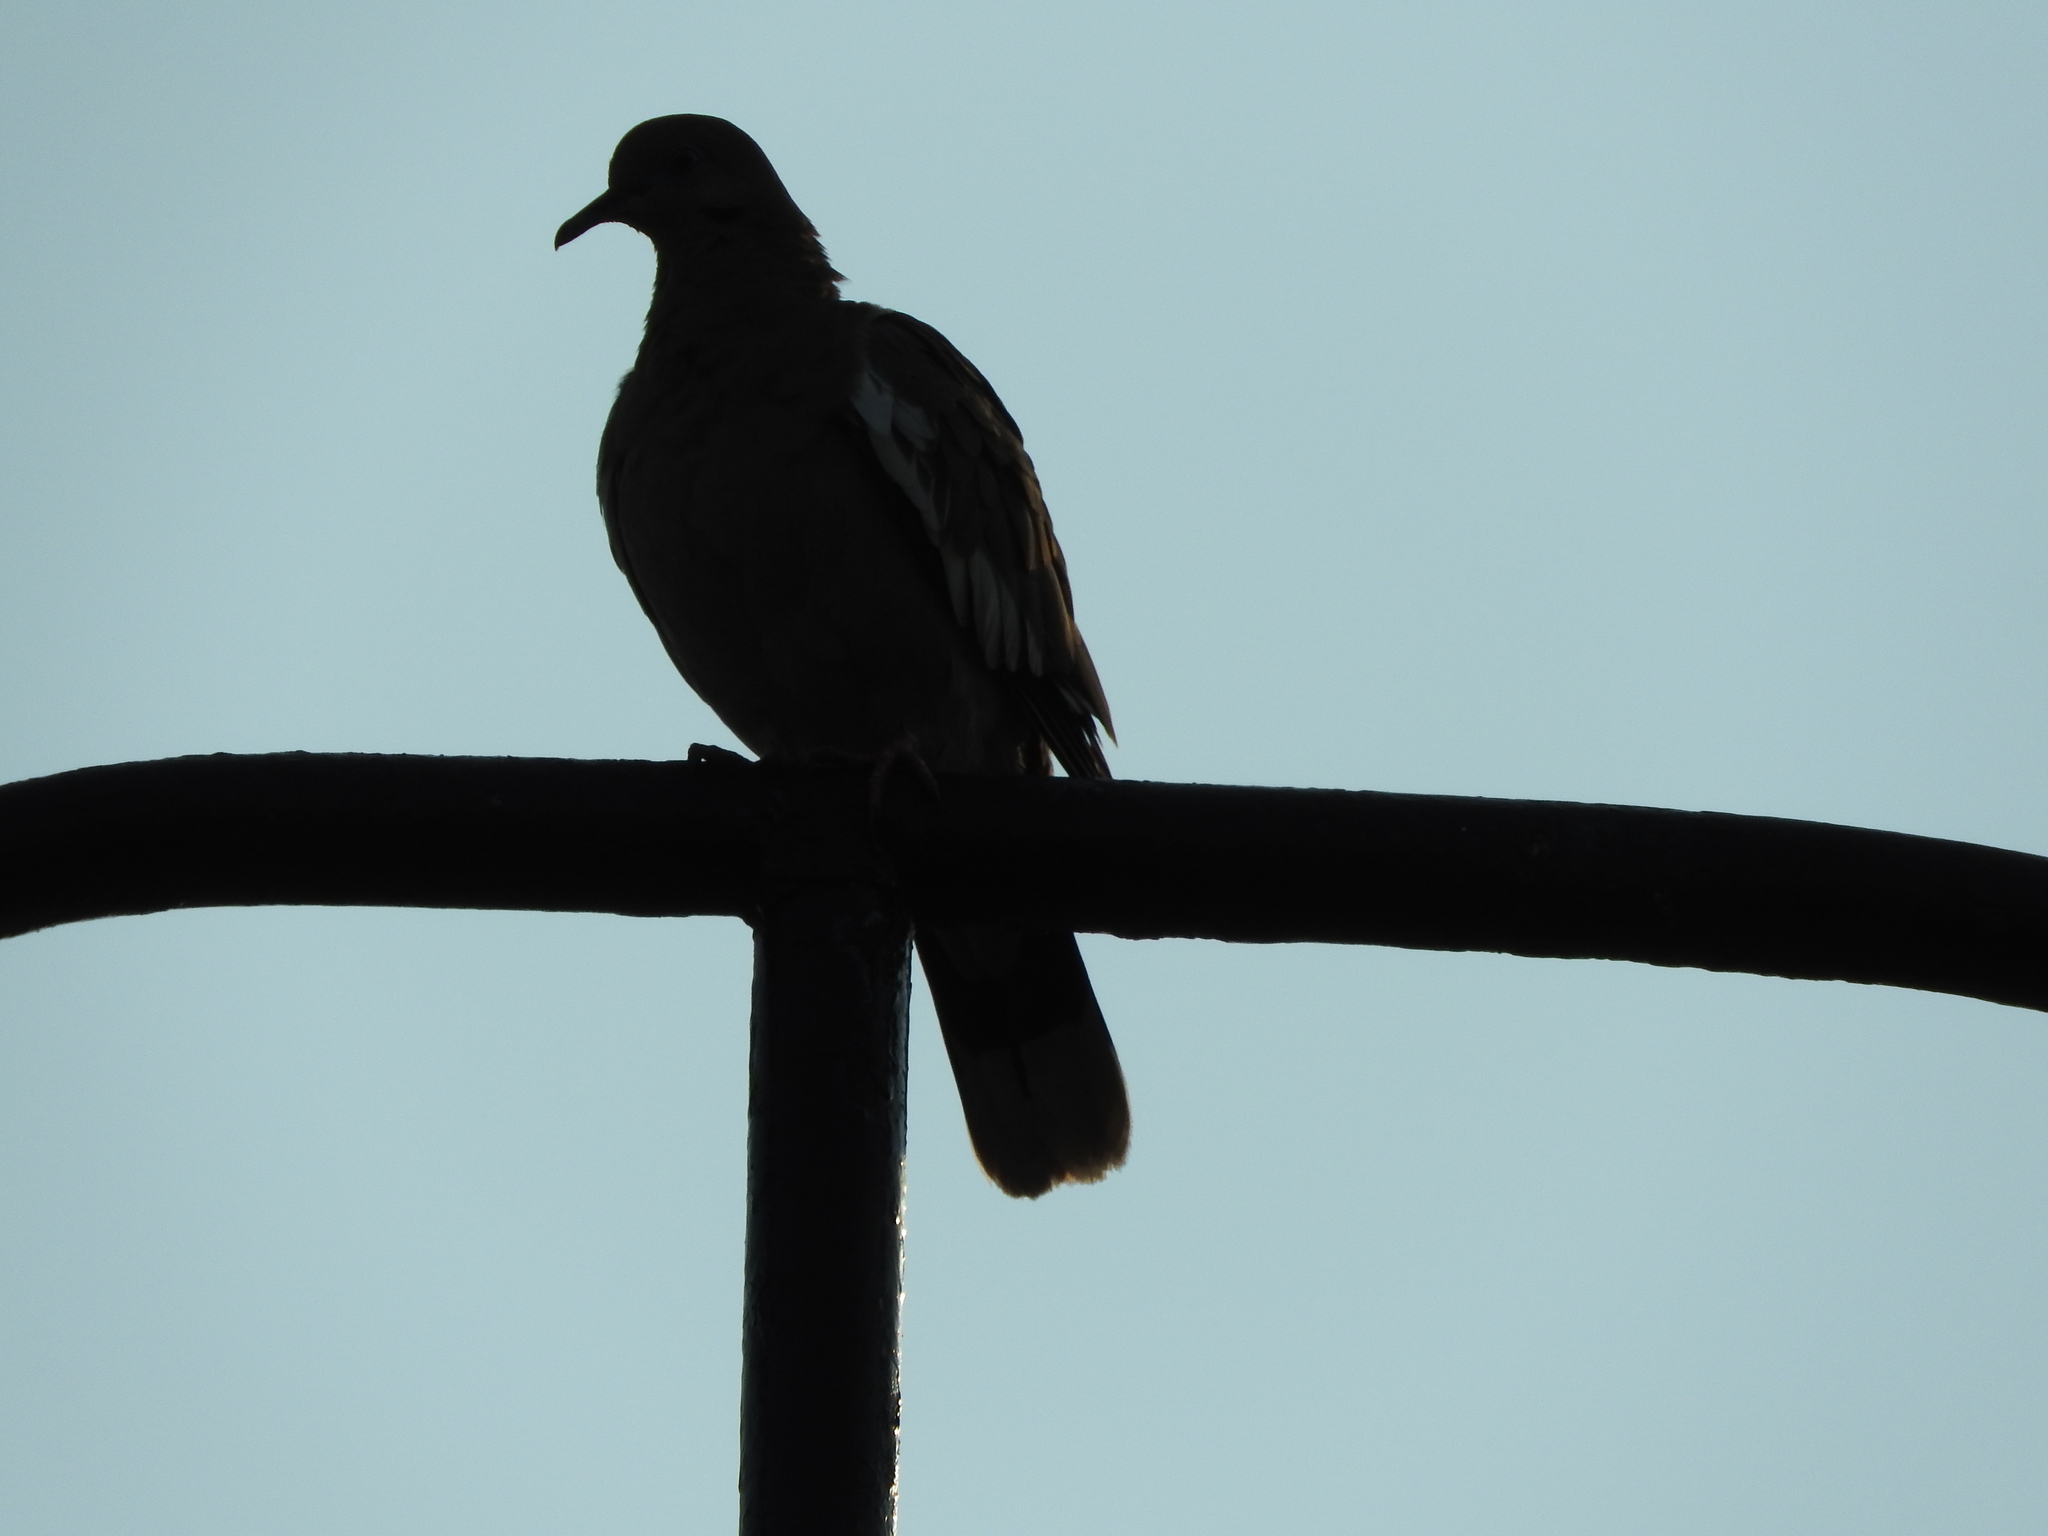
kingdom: Animalia
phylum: Chordata
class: Aves
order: Columbiformes
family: Columbidae
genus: Zenaida
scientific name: Zenaida asiatica
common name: White-winged dove
